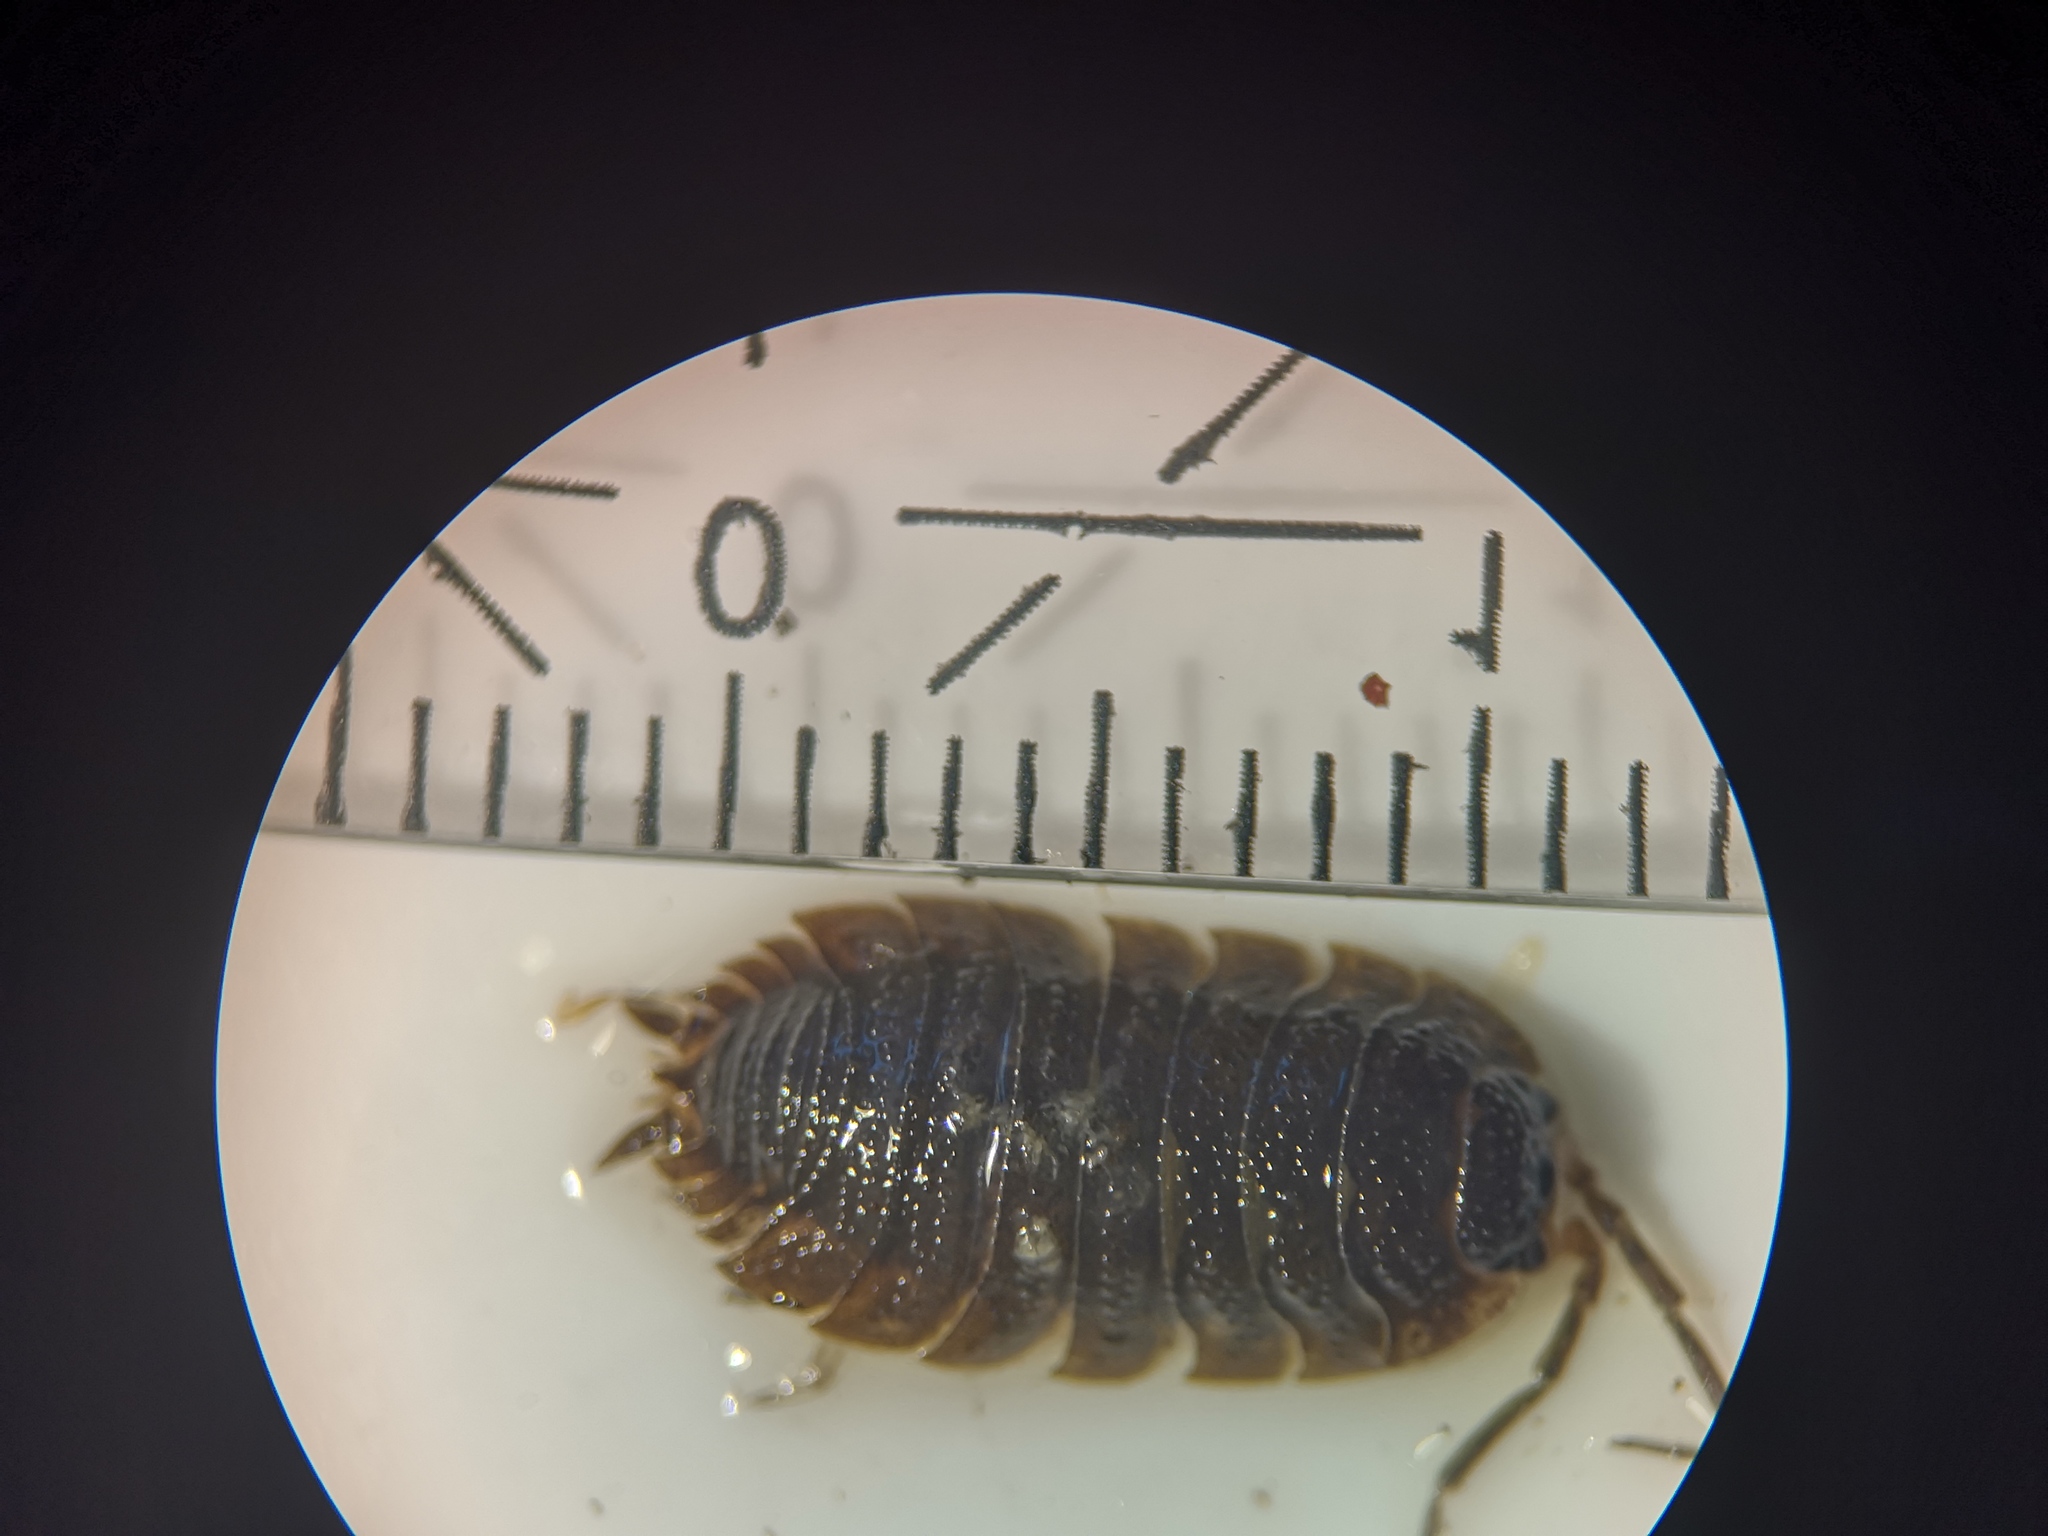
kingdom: Animalia
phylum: Arthropoda
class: Malacostraca
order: Isopoda
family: Porcellionidae
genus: Porcellio
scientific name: Porcellio scaber
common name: Common rough woodlouse
